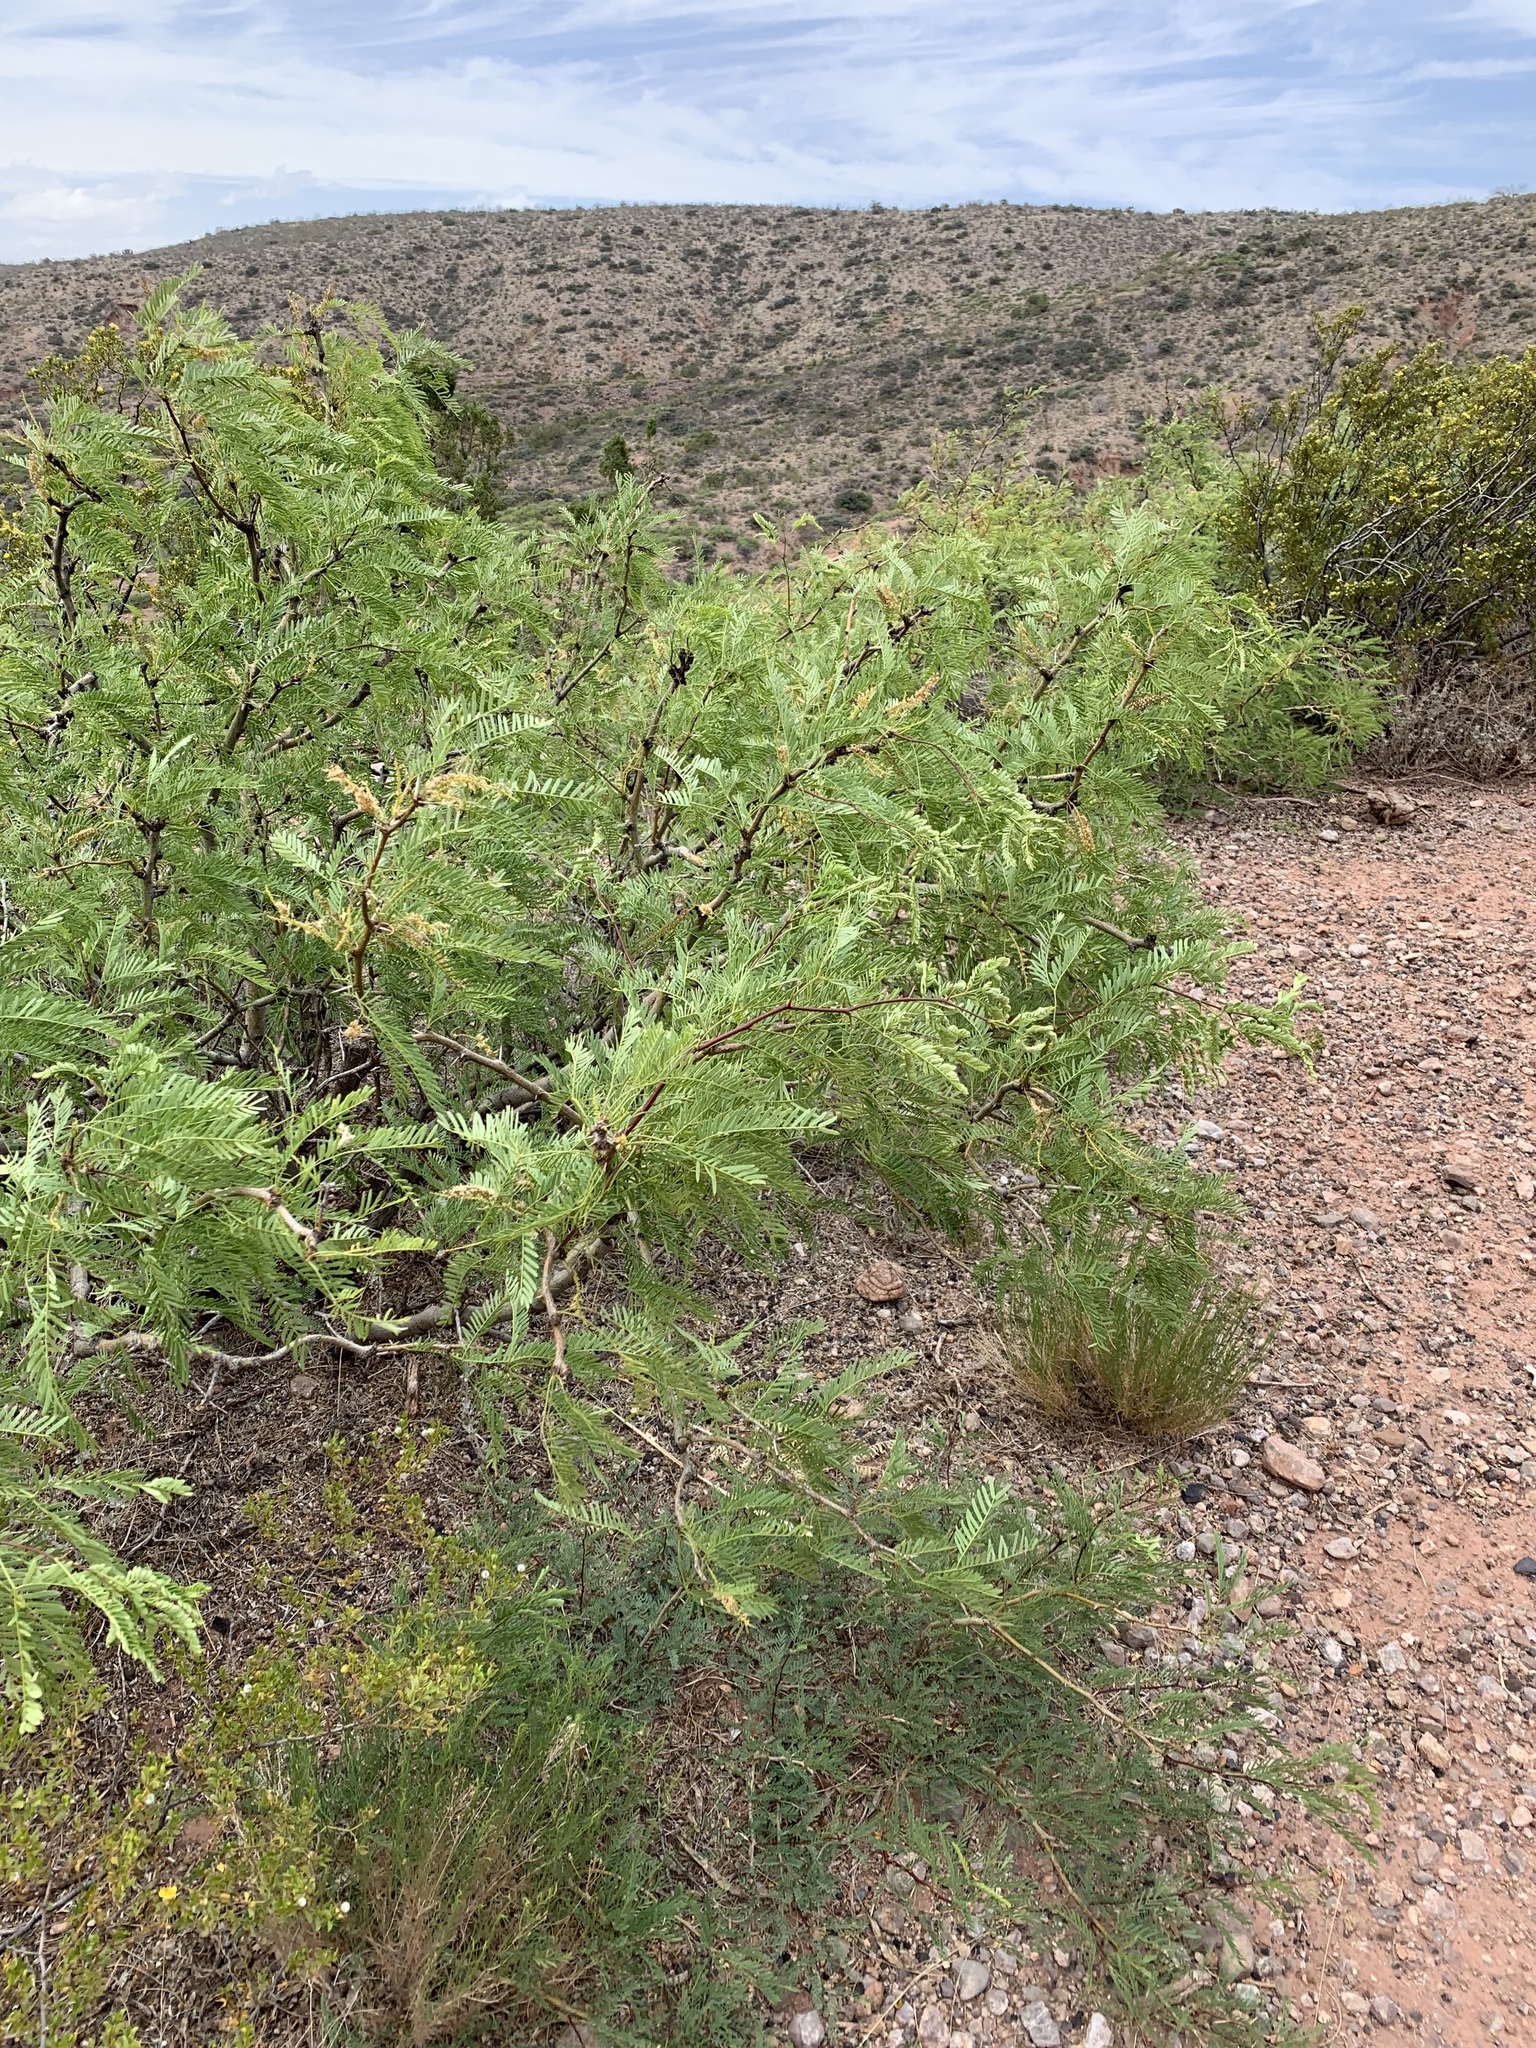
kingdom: Plantae
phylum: Tracheophyta
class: Magnoliopsida
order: Fabales
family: Fabaceae
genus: Prosopis
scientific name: Prosopis glandulosa
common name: Honey mesquite
